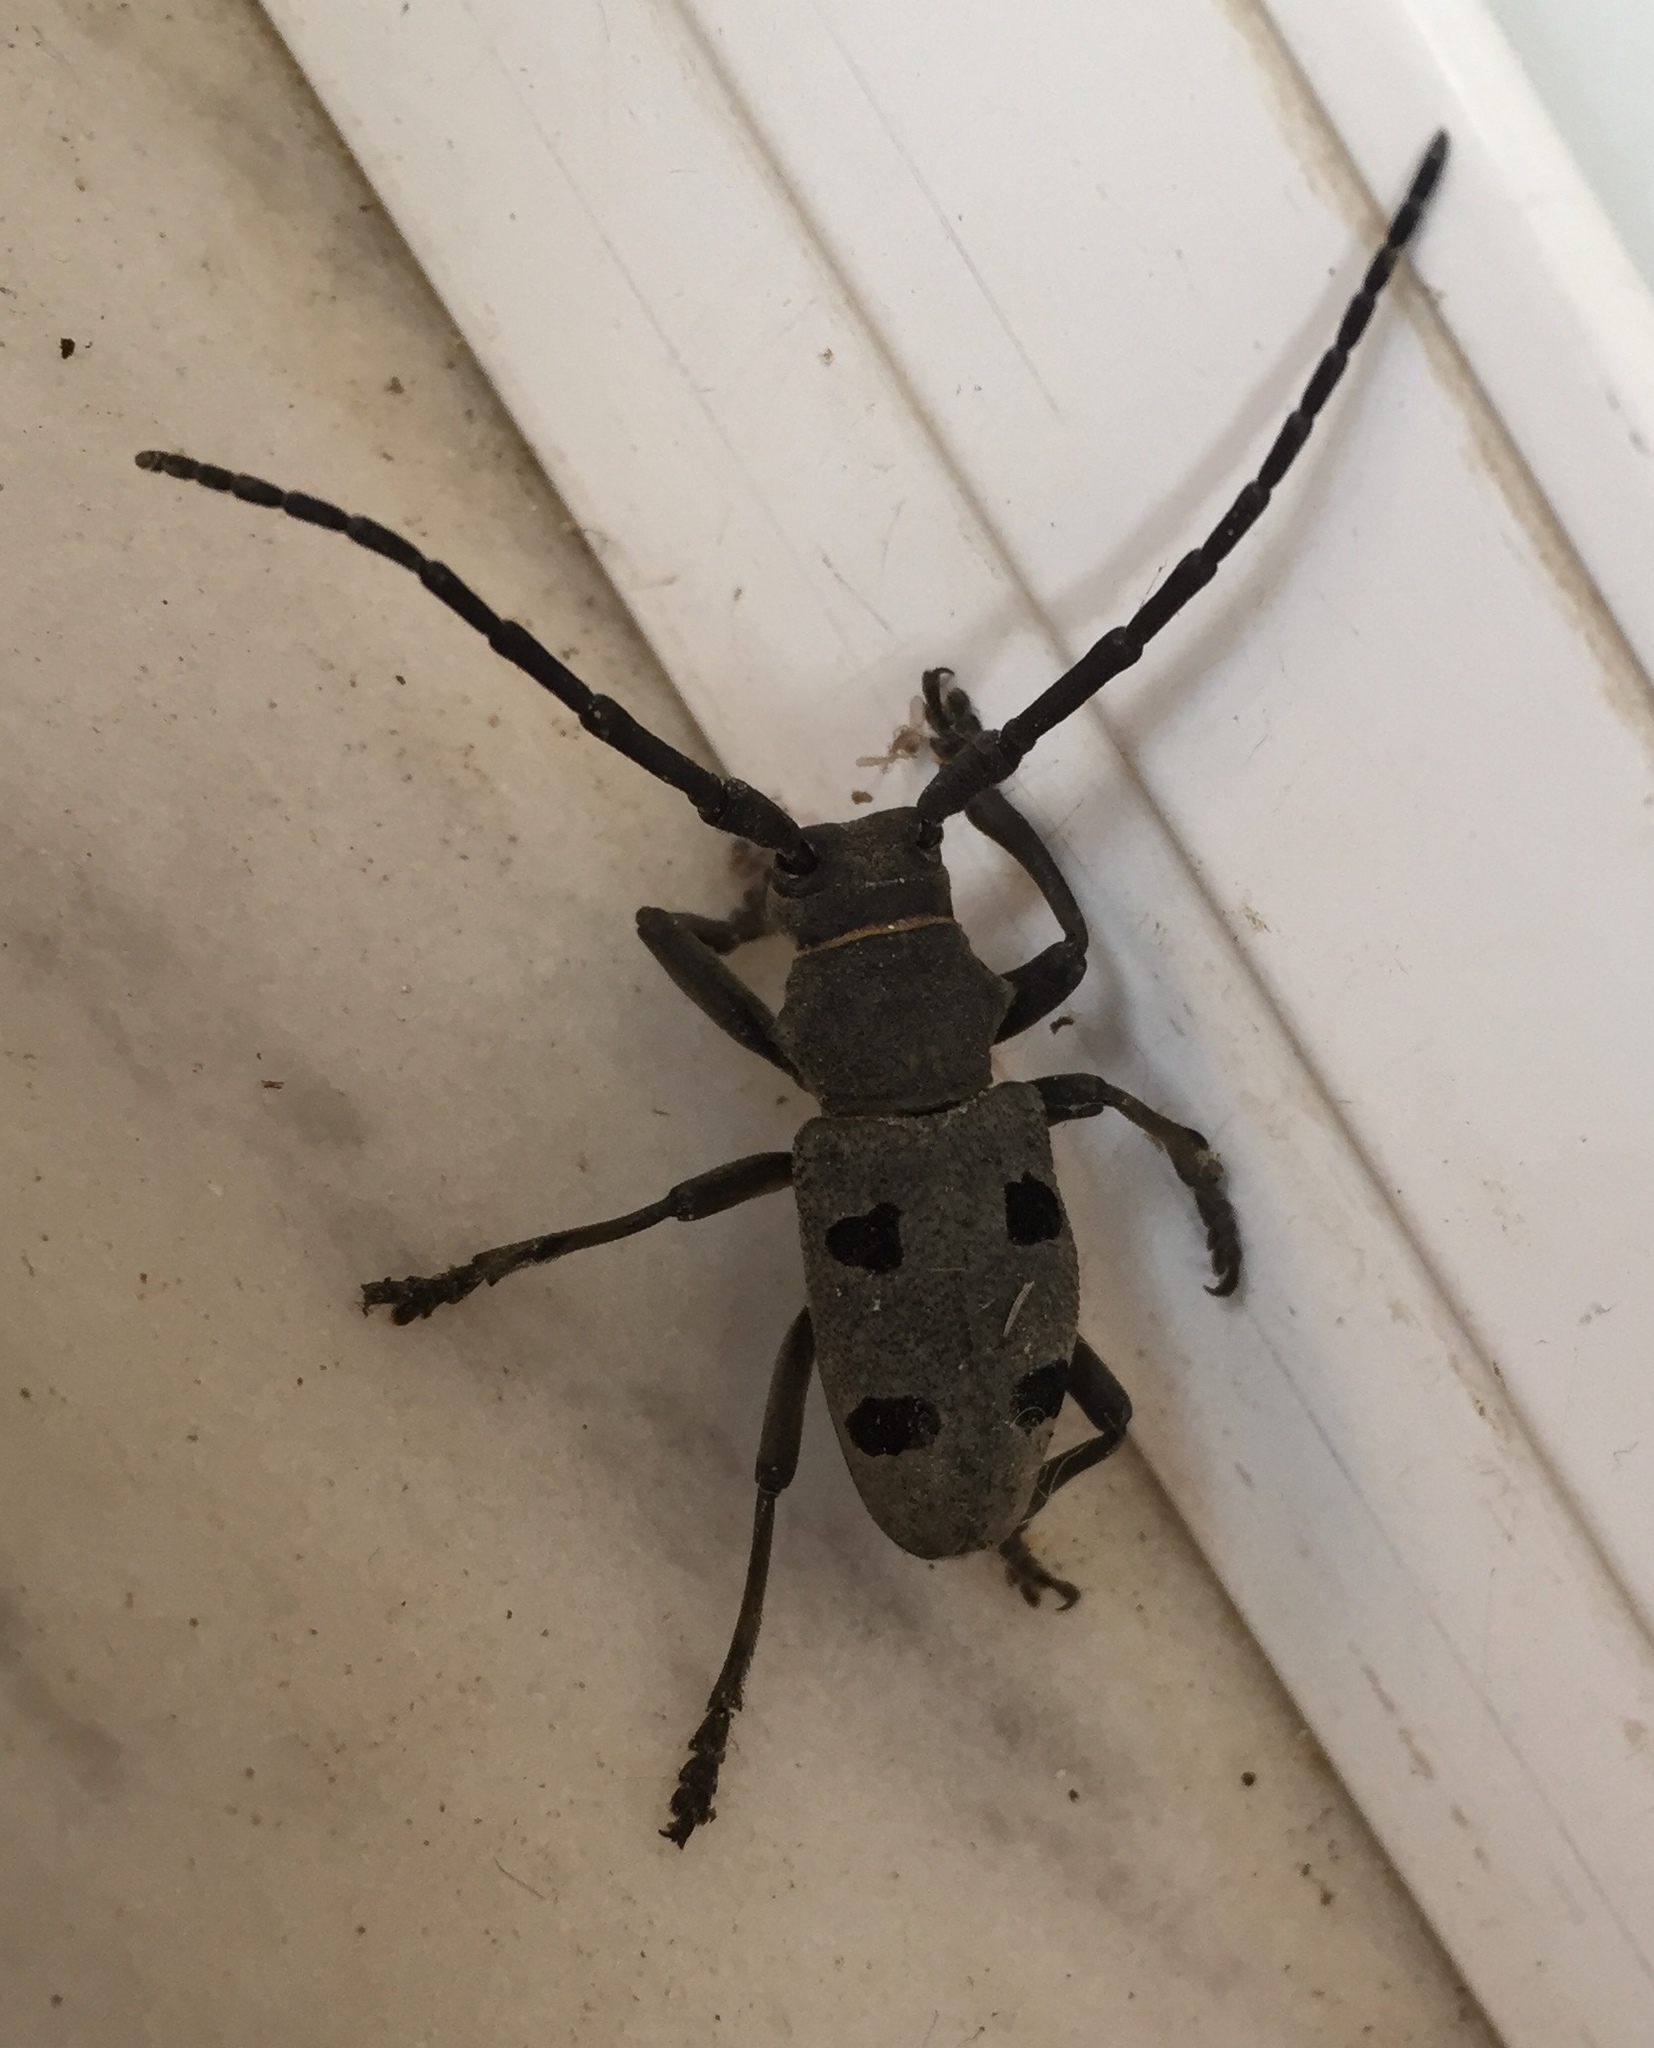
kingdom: Animalia
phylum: Arthropoda
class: Insecta
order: Coleoptera
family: Cerambycidae
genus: Morimus
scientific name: Morimus funereus
